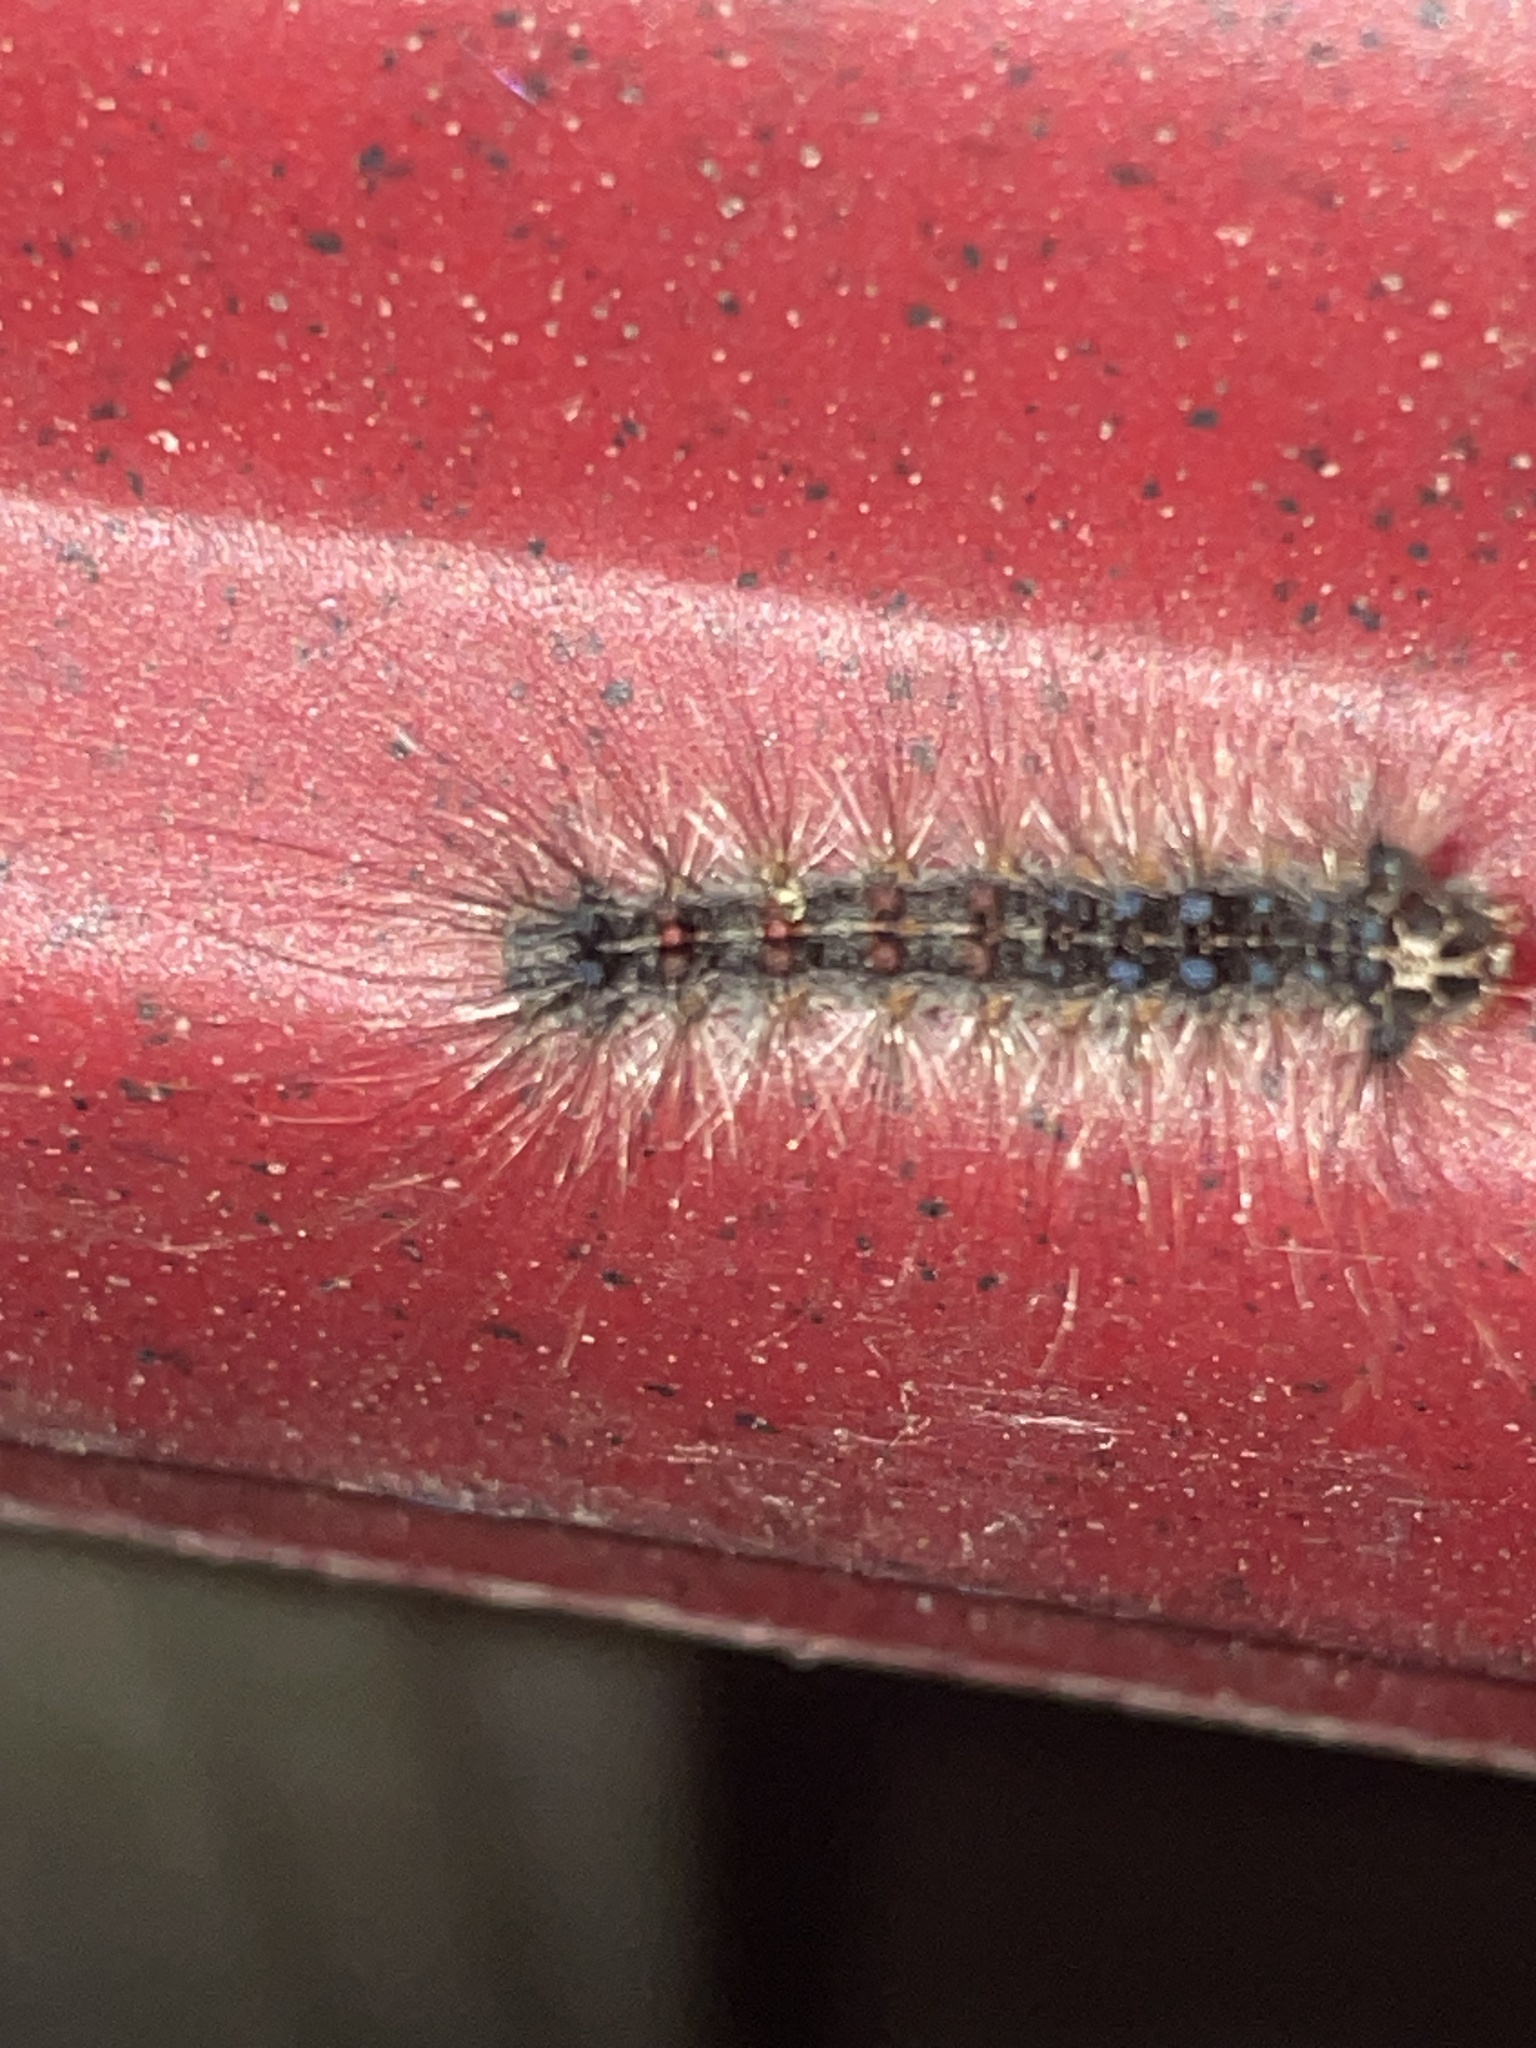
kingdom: Animalia
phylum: Arthropoda
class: Insecta
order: Lepidoptera
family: Erebidae
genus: Lymantria
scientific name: Lymantria dispar
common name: Gypsy moth
